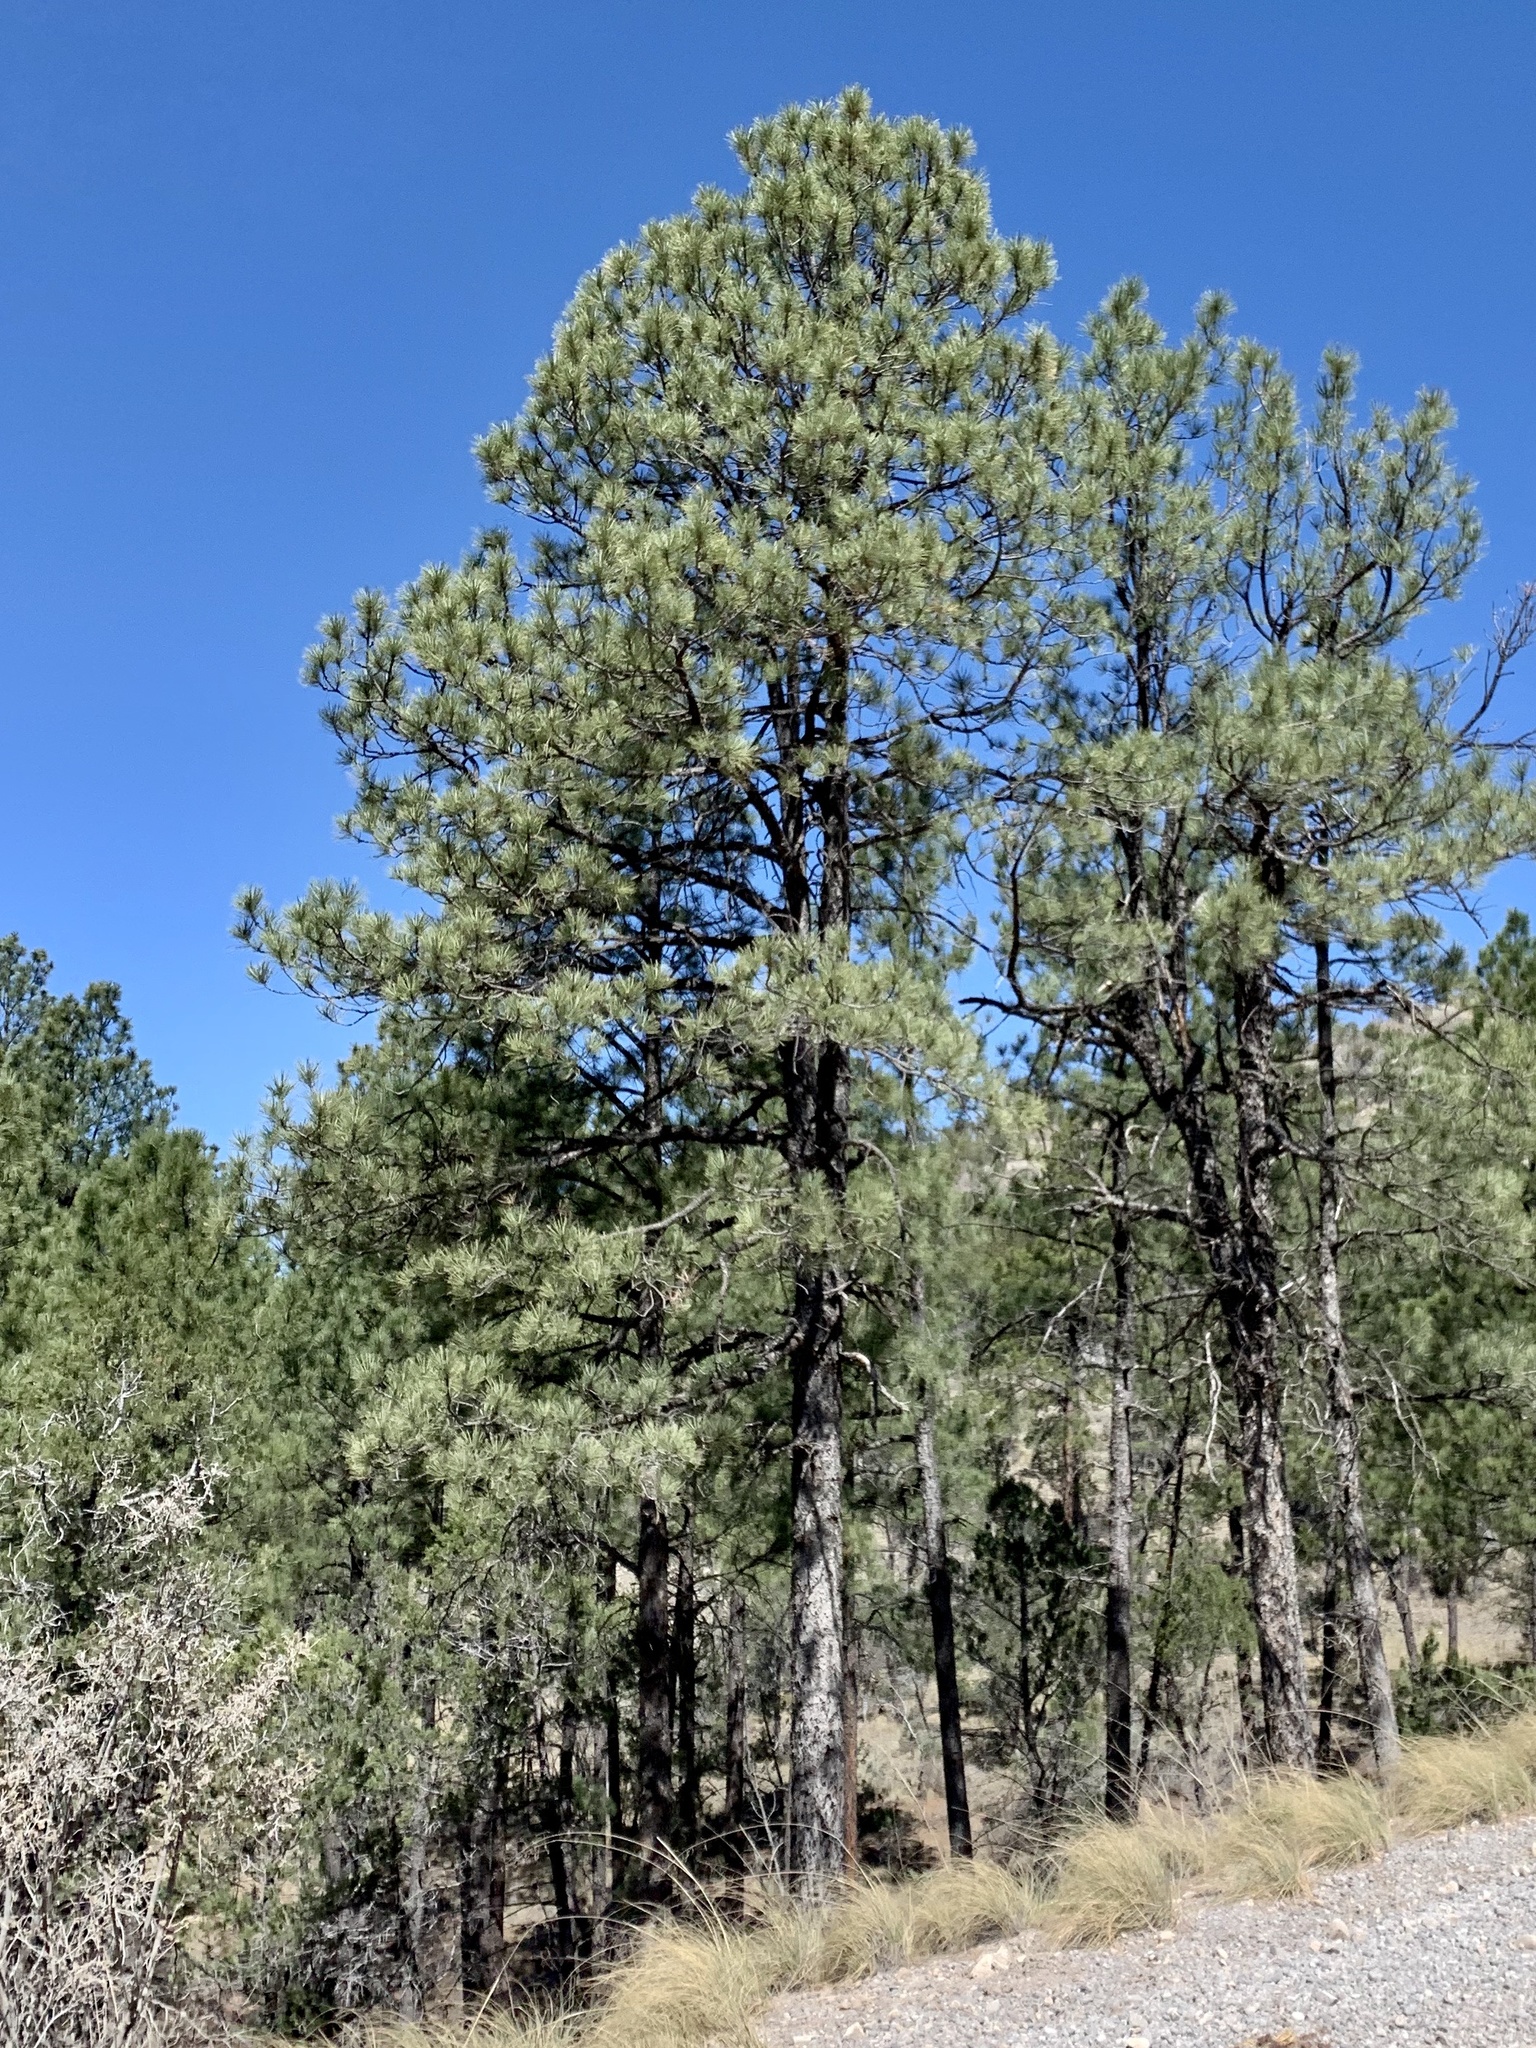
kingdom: Plantae
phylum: Tracheophyta
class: Pinopsida
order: Pinales
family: Pinaceae
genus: Pinus
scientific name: Pinus ponderosa
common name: Western yellow-pine
